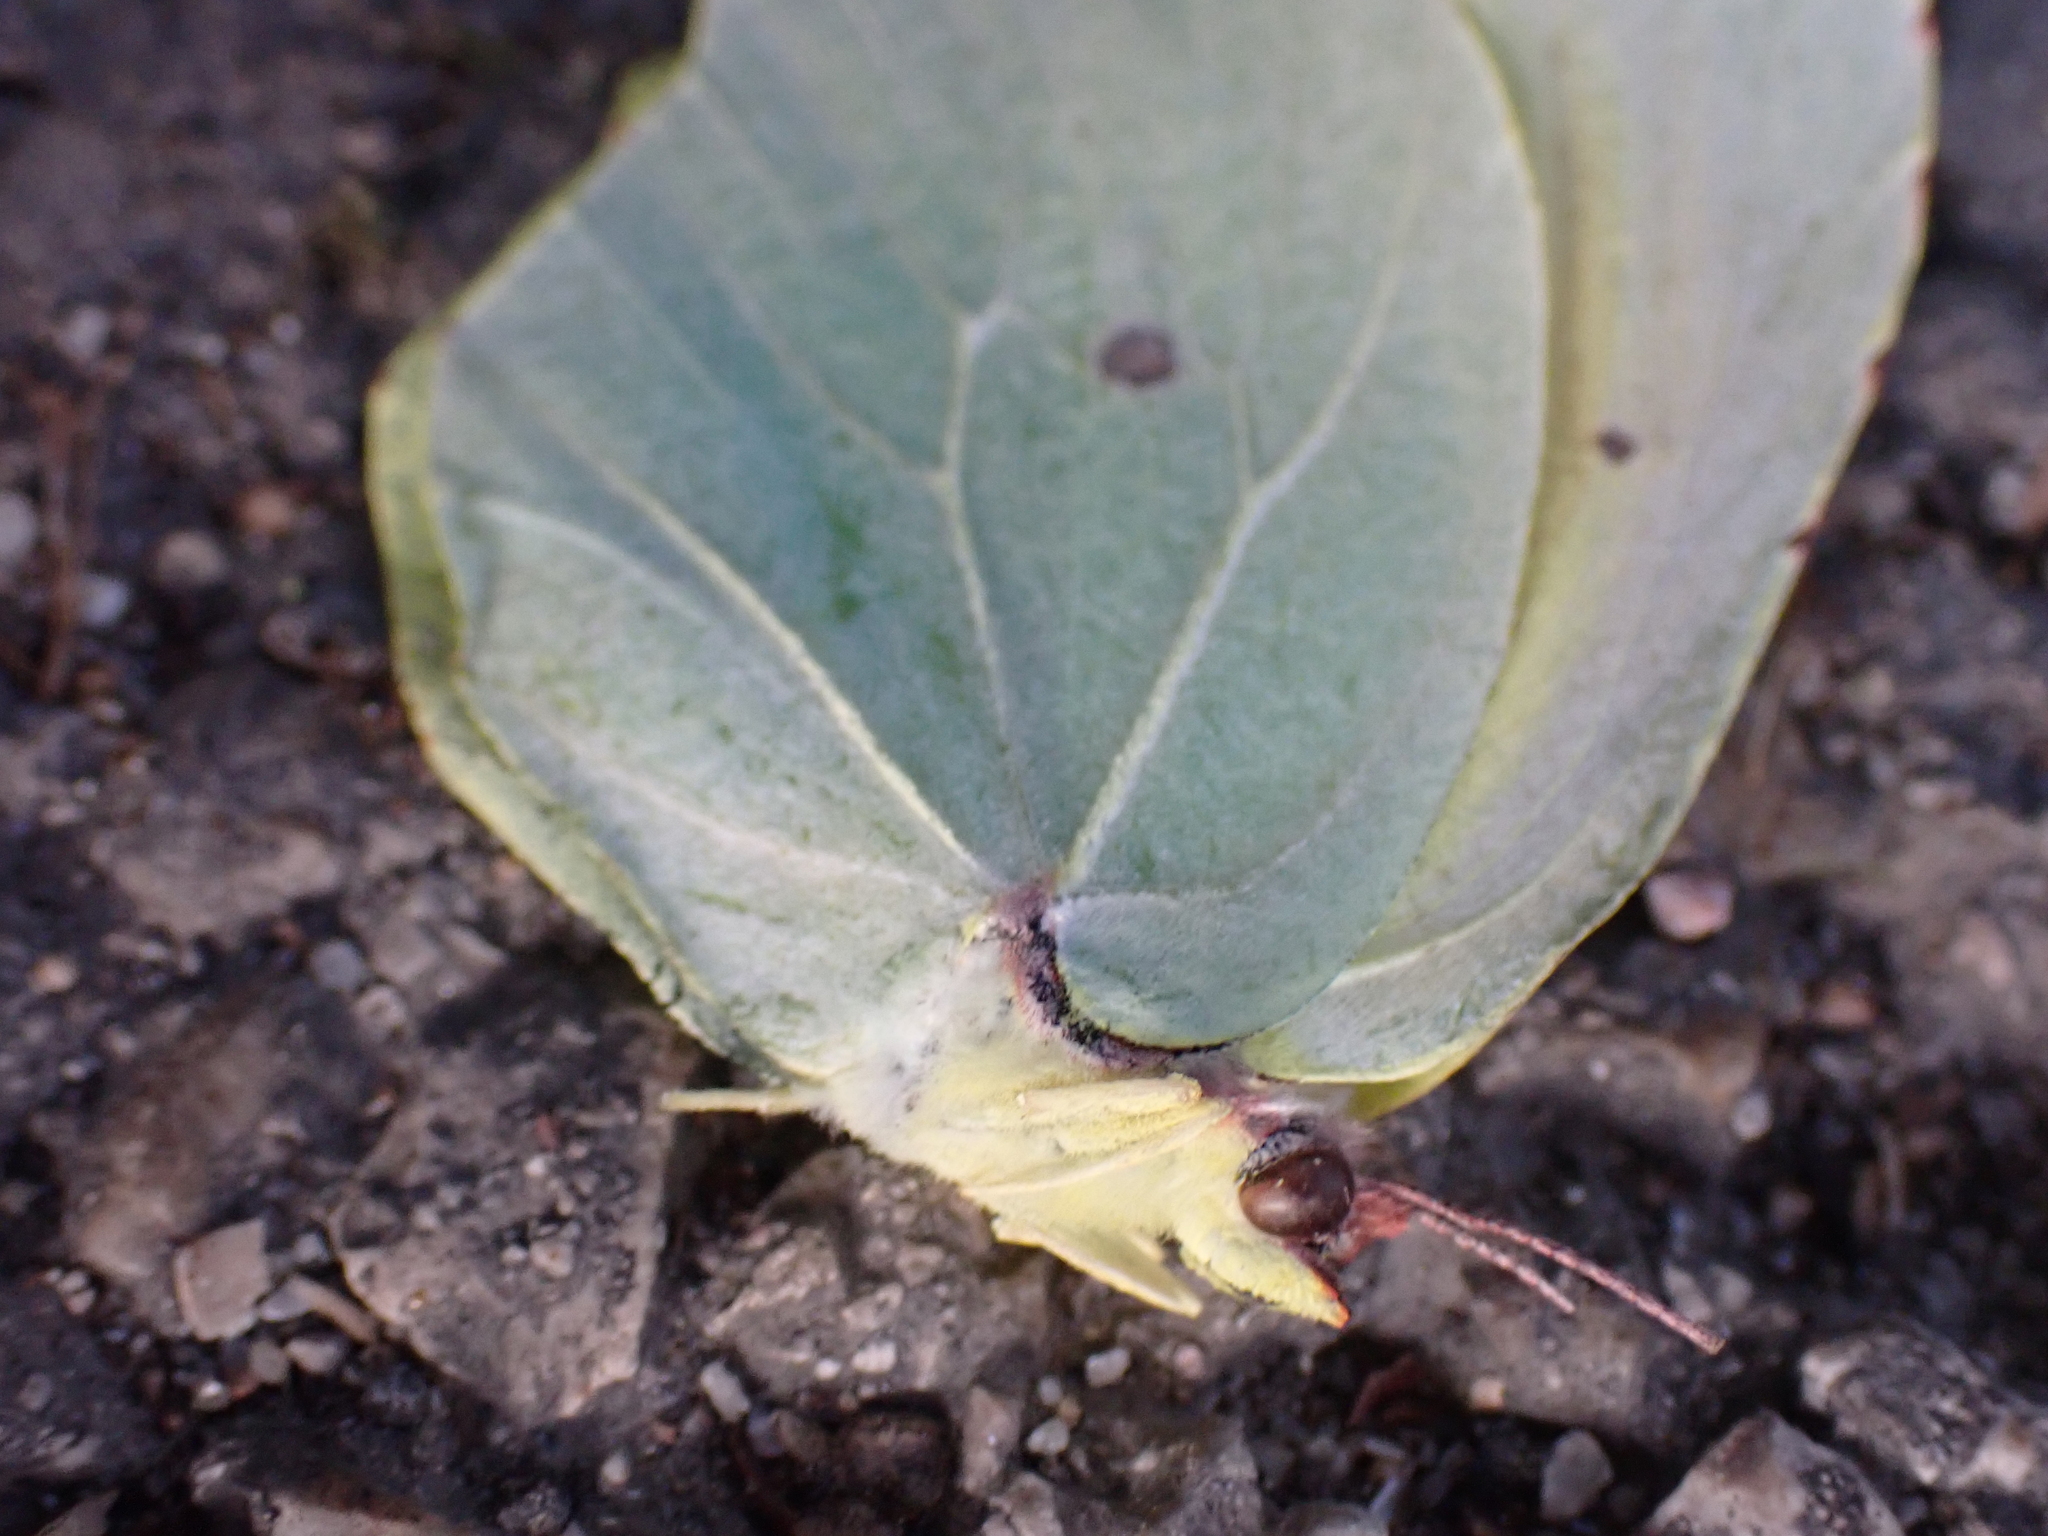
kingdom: Animalia
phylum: Arthropoda
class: Insecta
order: Lepidoptera
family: Pieridae
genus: Gonepteryx
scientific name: Gonepteryx cleopatra
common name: Cleopatra
